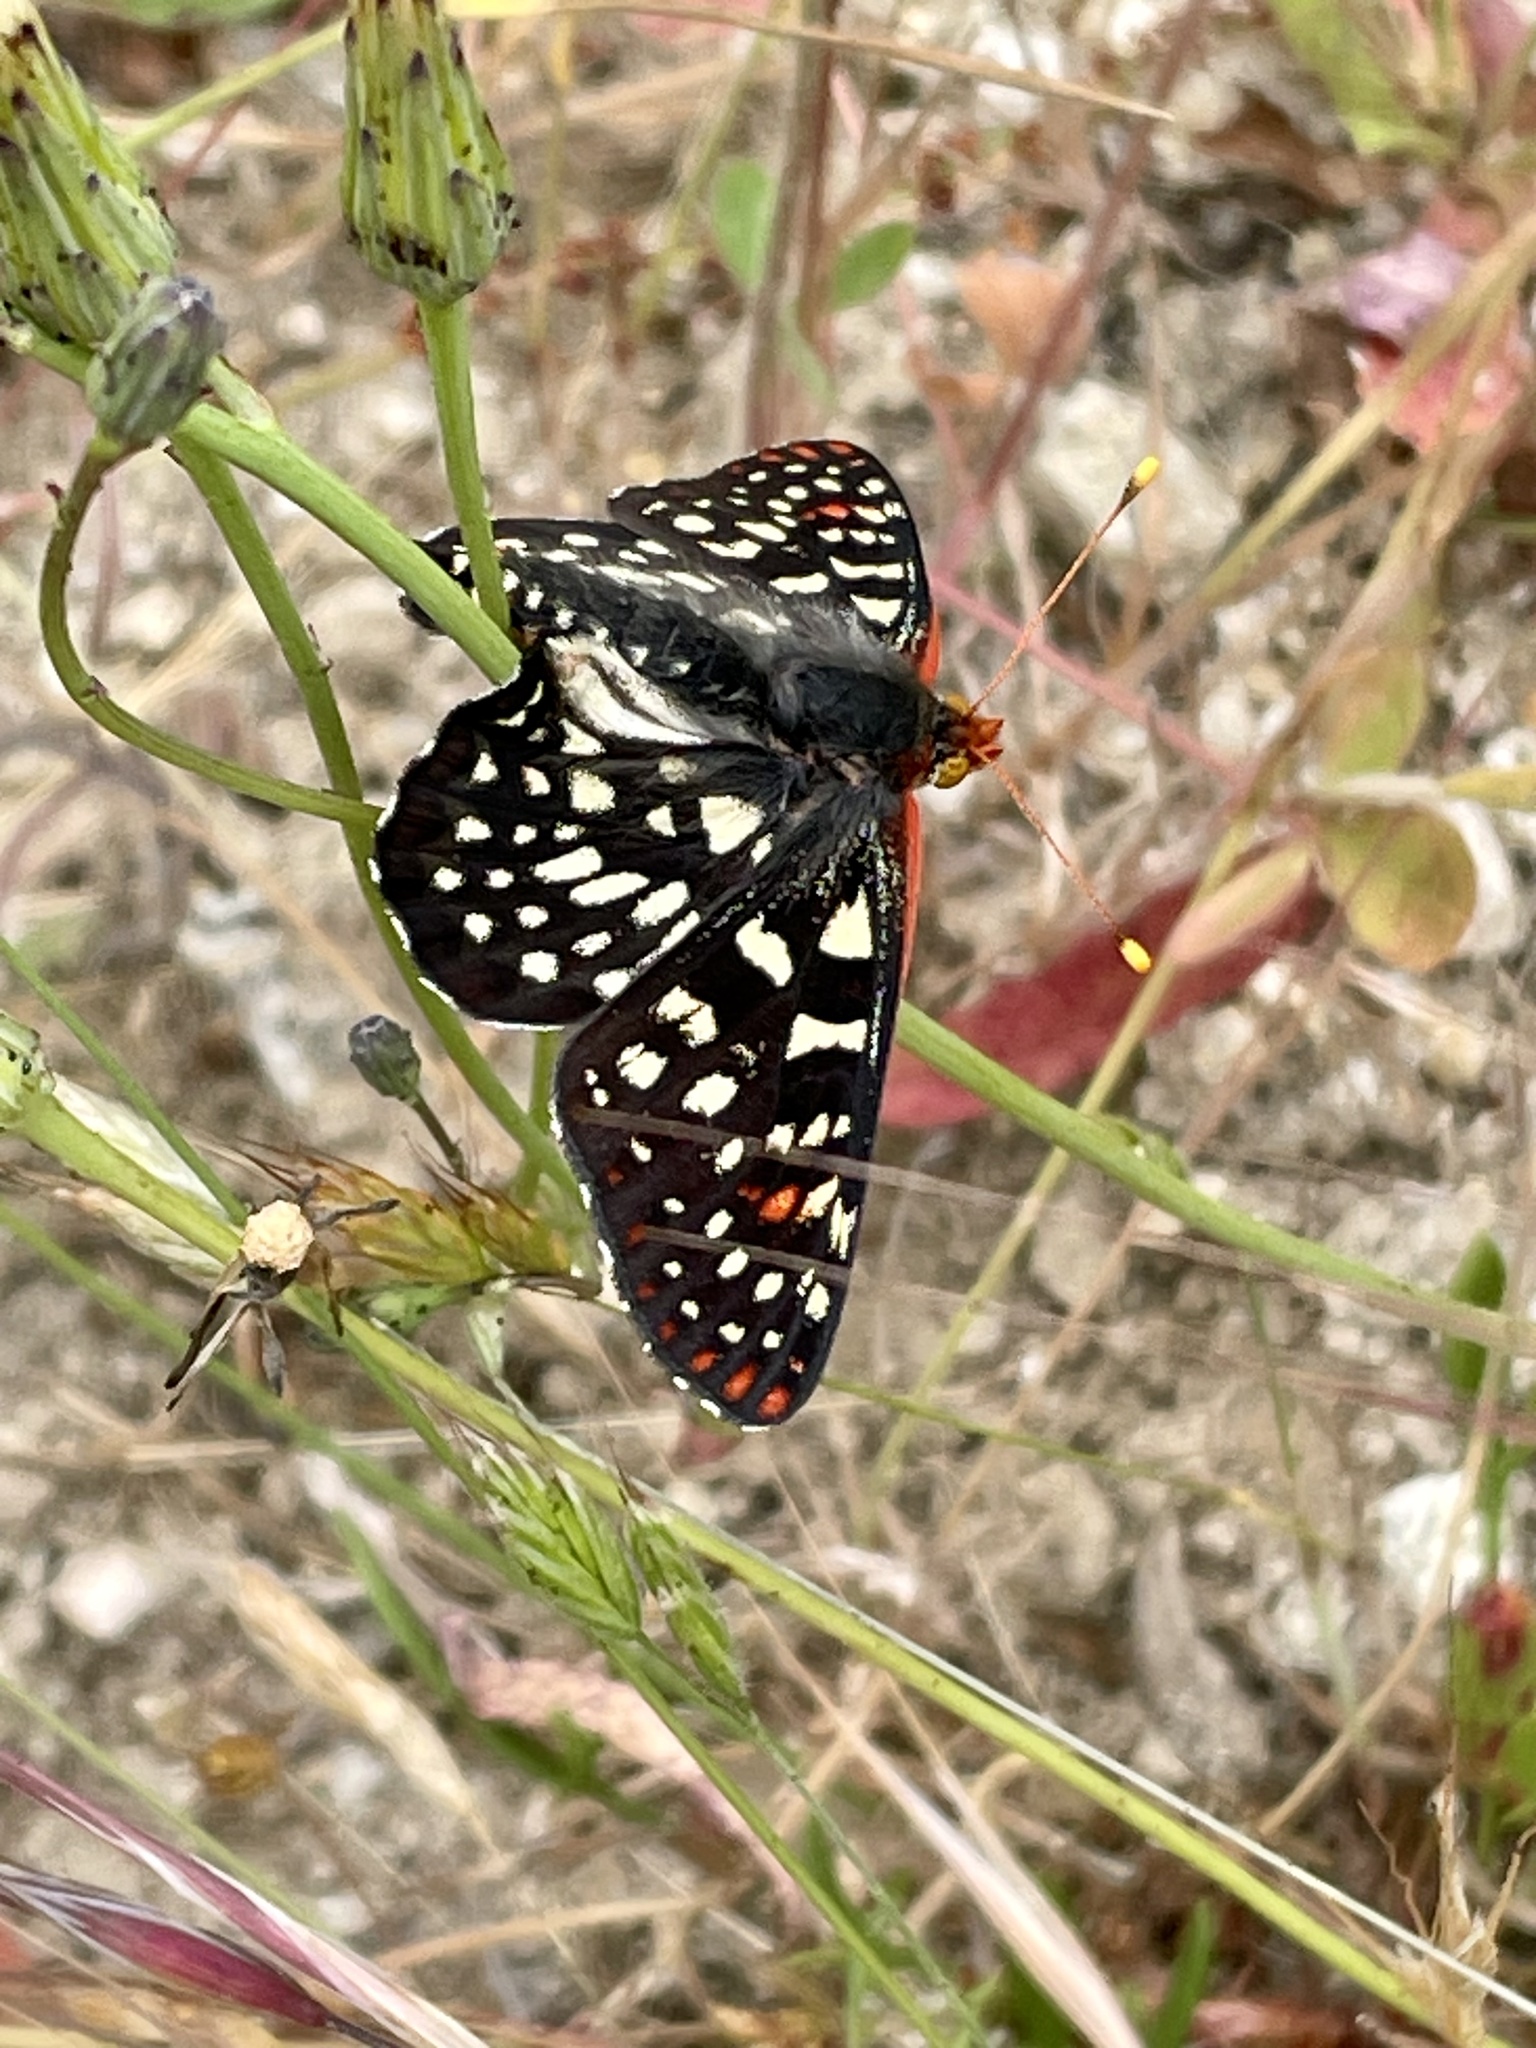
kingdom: Animalia
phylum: Arthropoda
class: Insecta
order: Lepidoptera
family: Nymphalidae
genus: Occidryas
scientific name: Occidryas chalcedona
